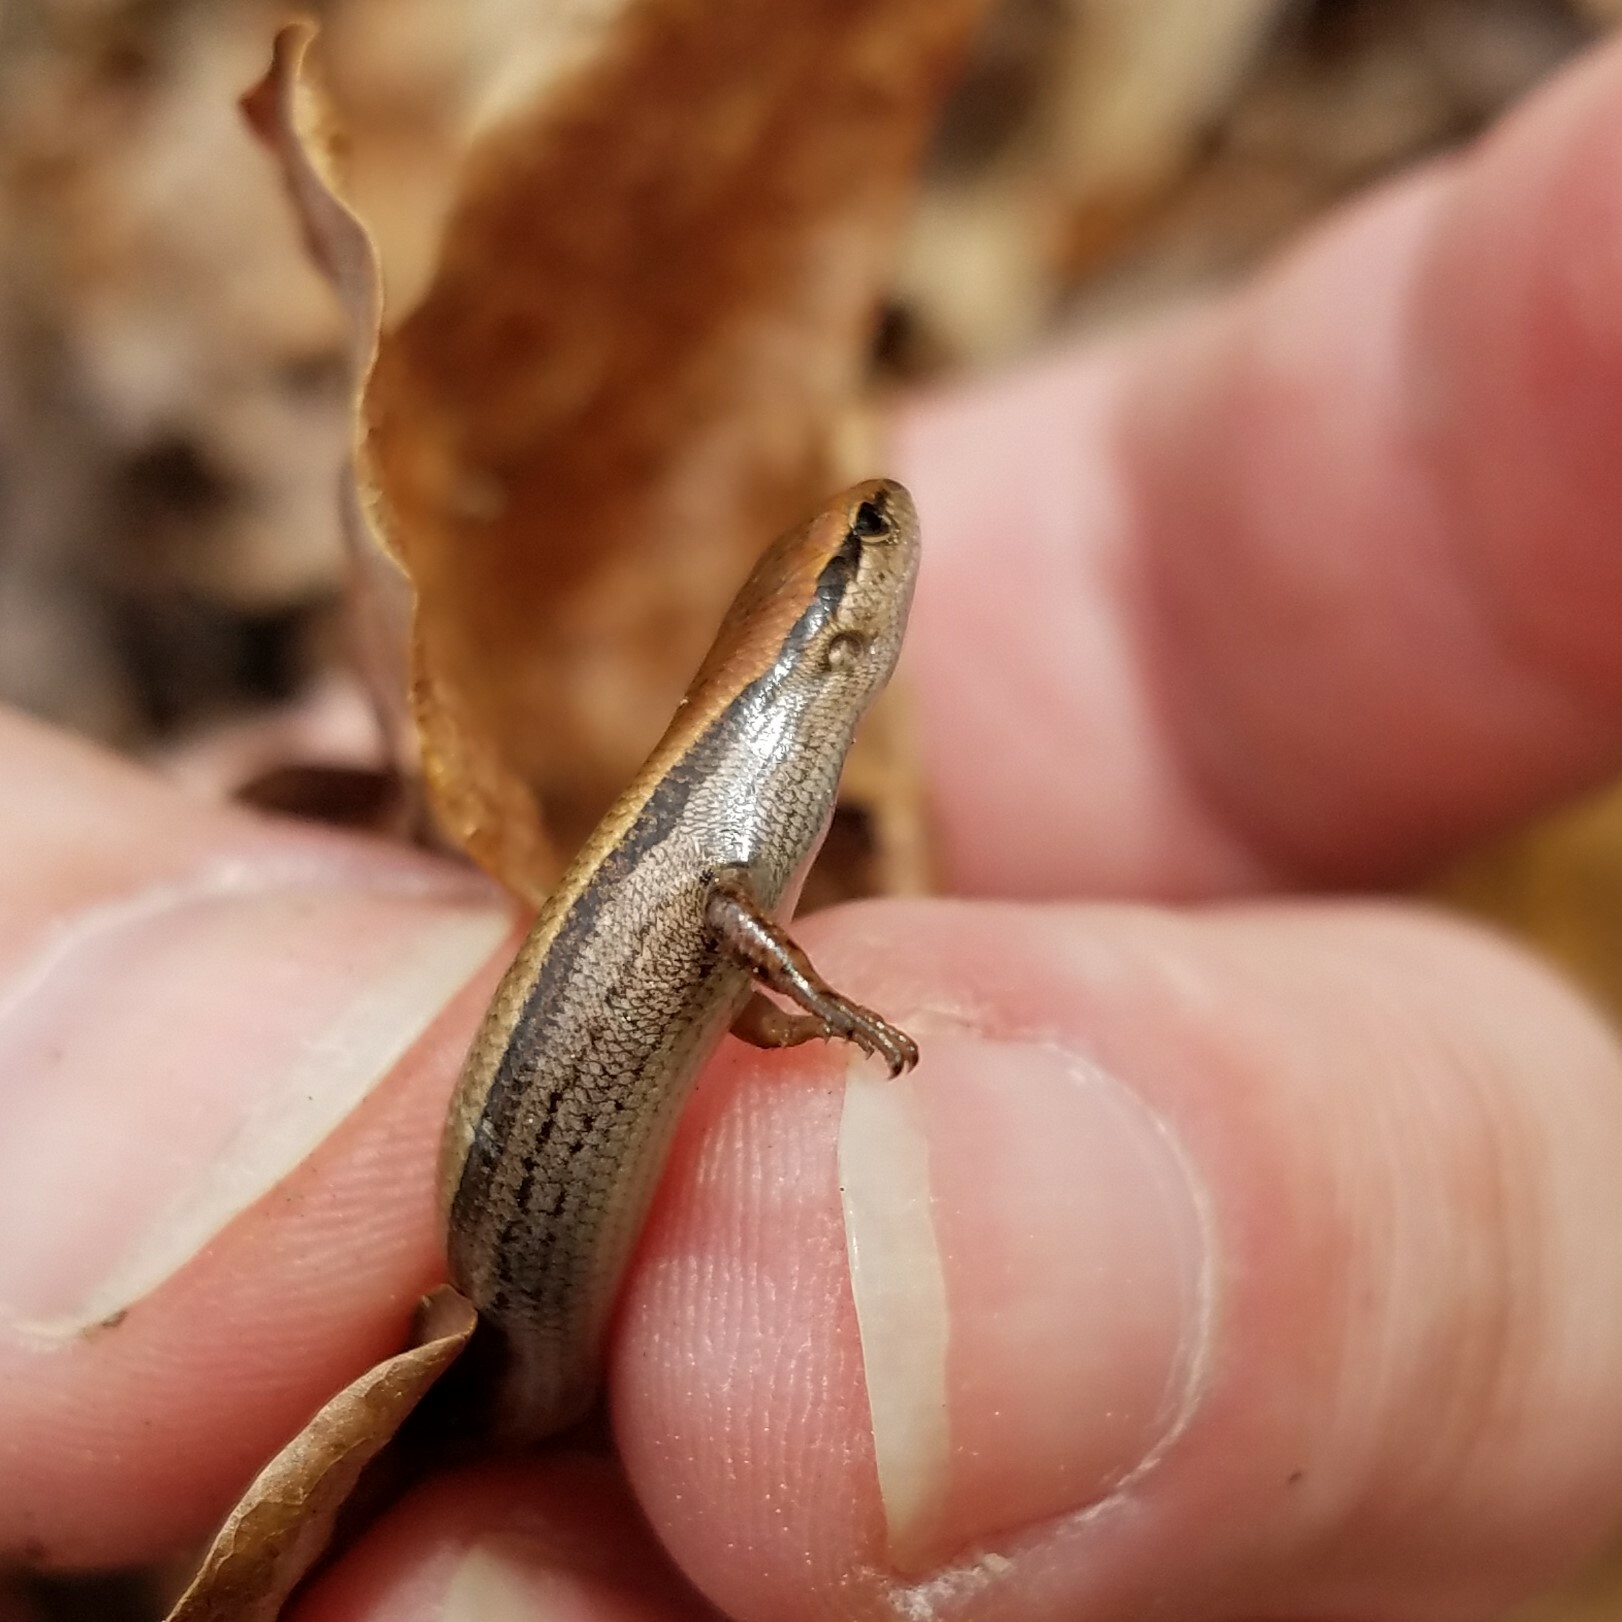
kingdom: Animalia
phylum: Chordata
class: Squamata
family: Scincidae
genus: Scincella
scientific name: Scincella lateralis
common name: Ground skink
